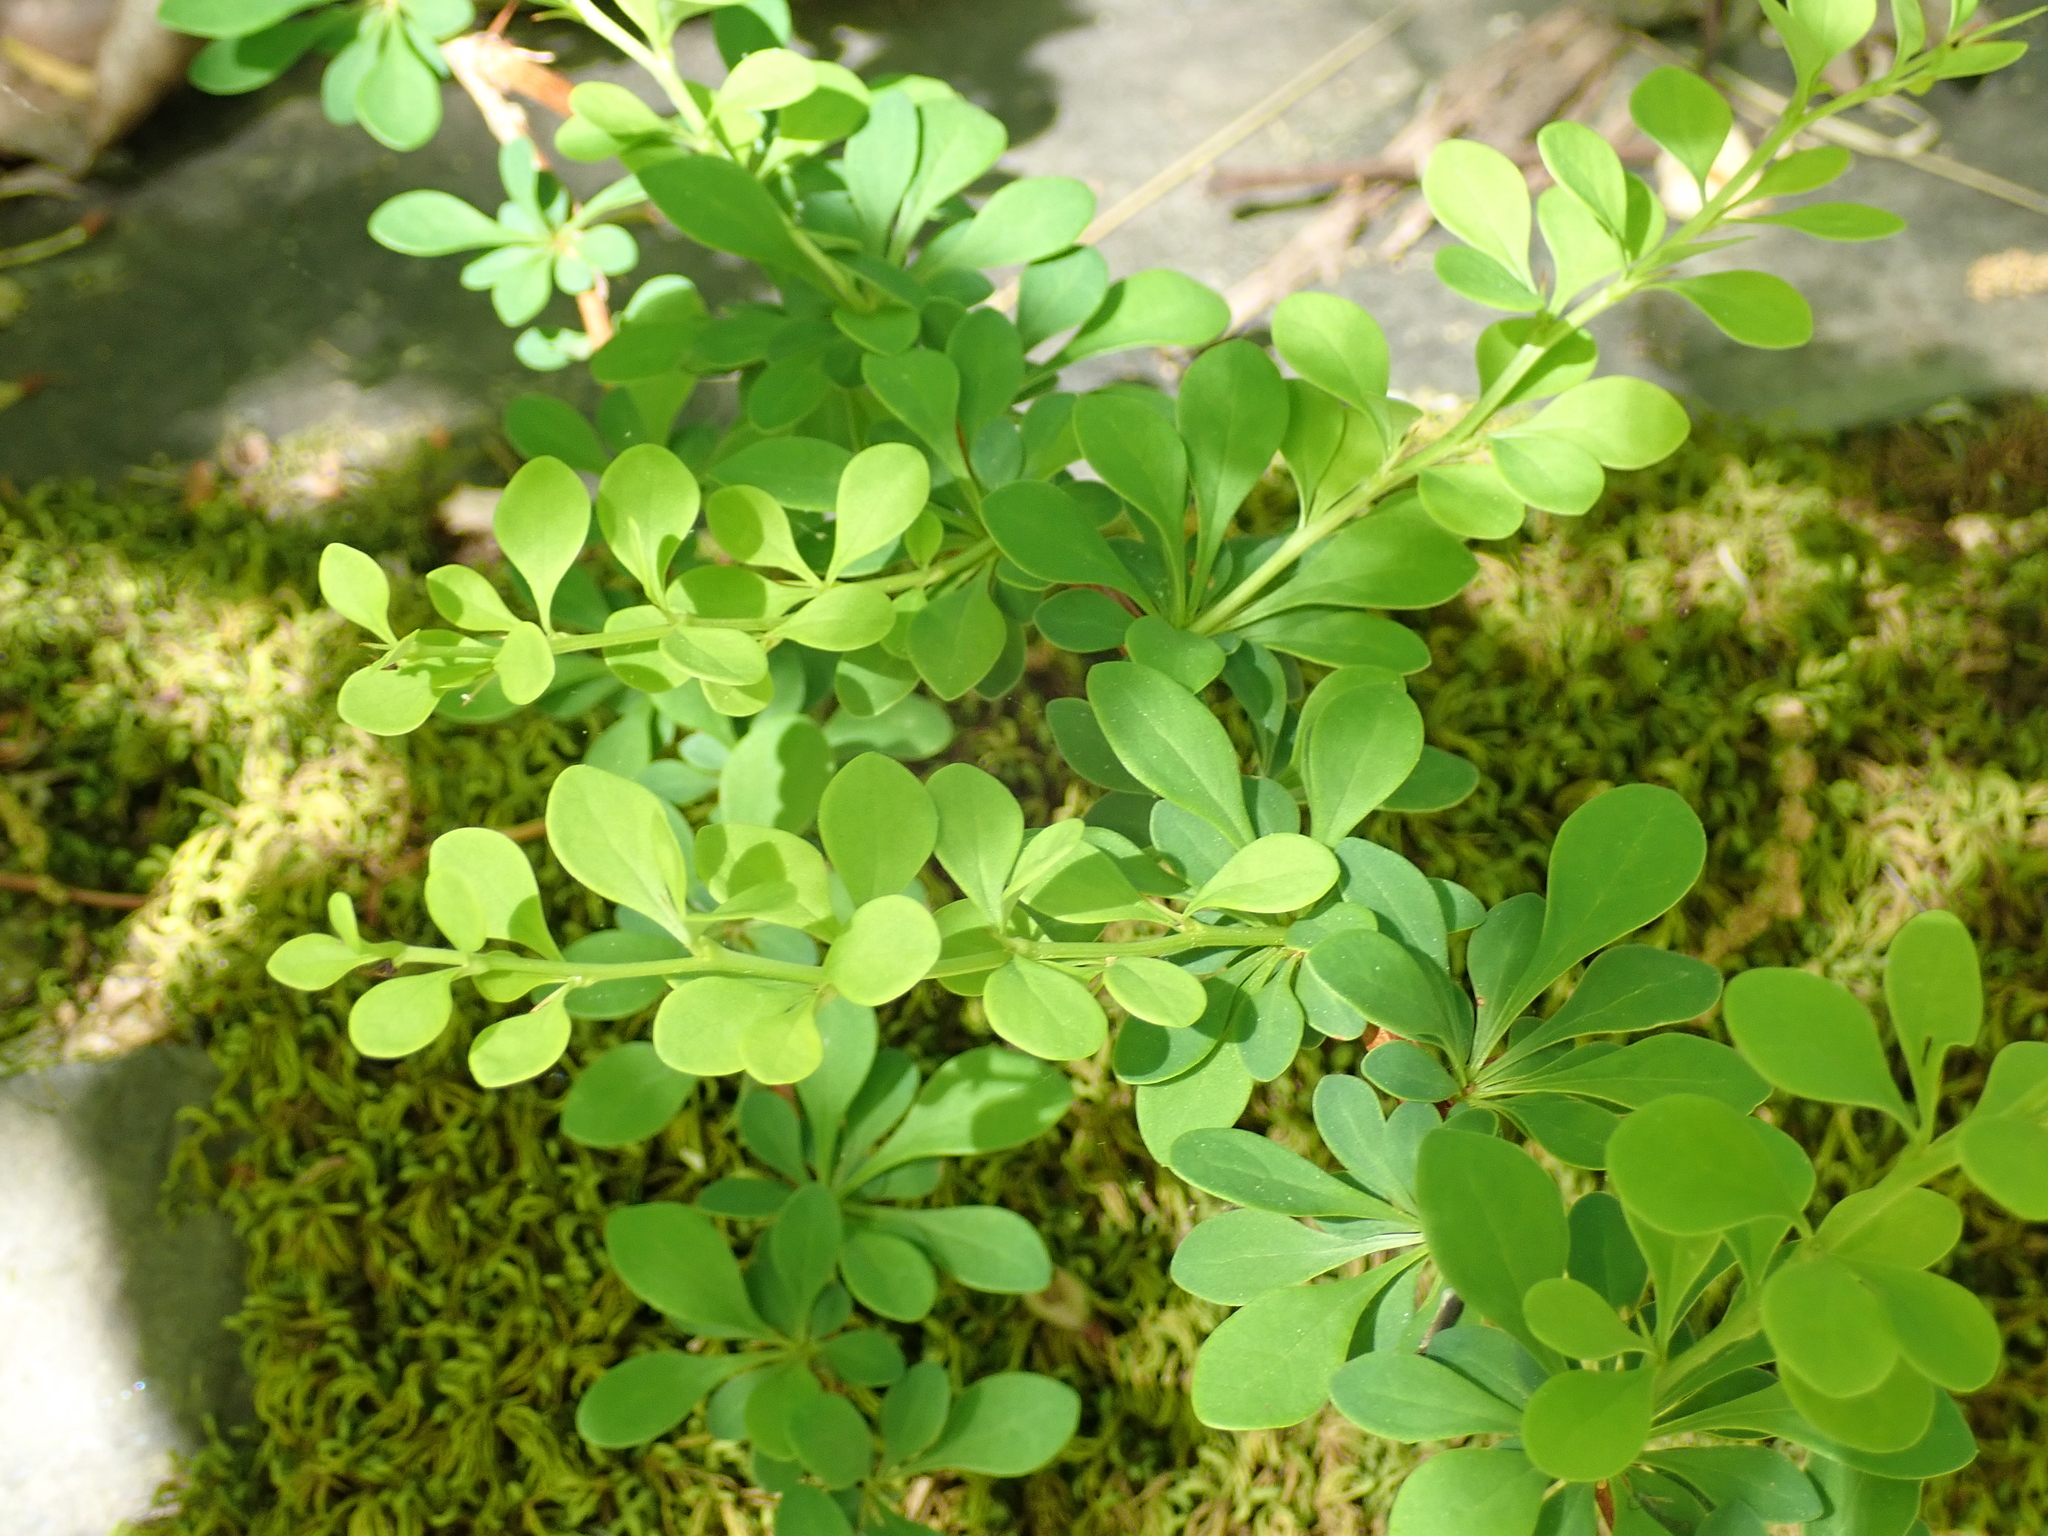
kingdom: Plantae
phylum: Tracheophyta
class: Magnoliopsida
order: Ranunculales
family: Berberidaceae
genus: Berberis
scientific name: Berberis thunbergii
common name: Japanese barberry
